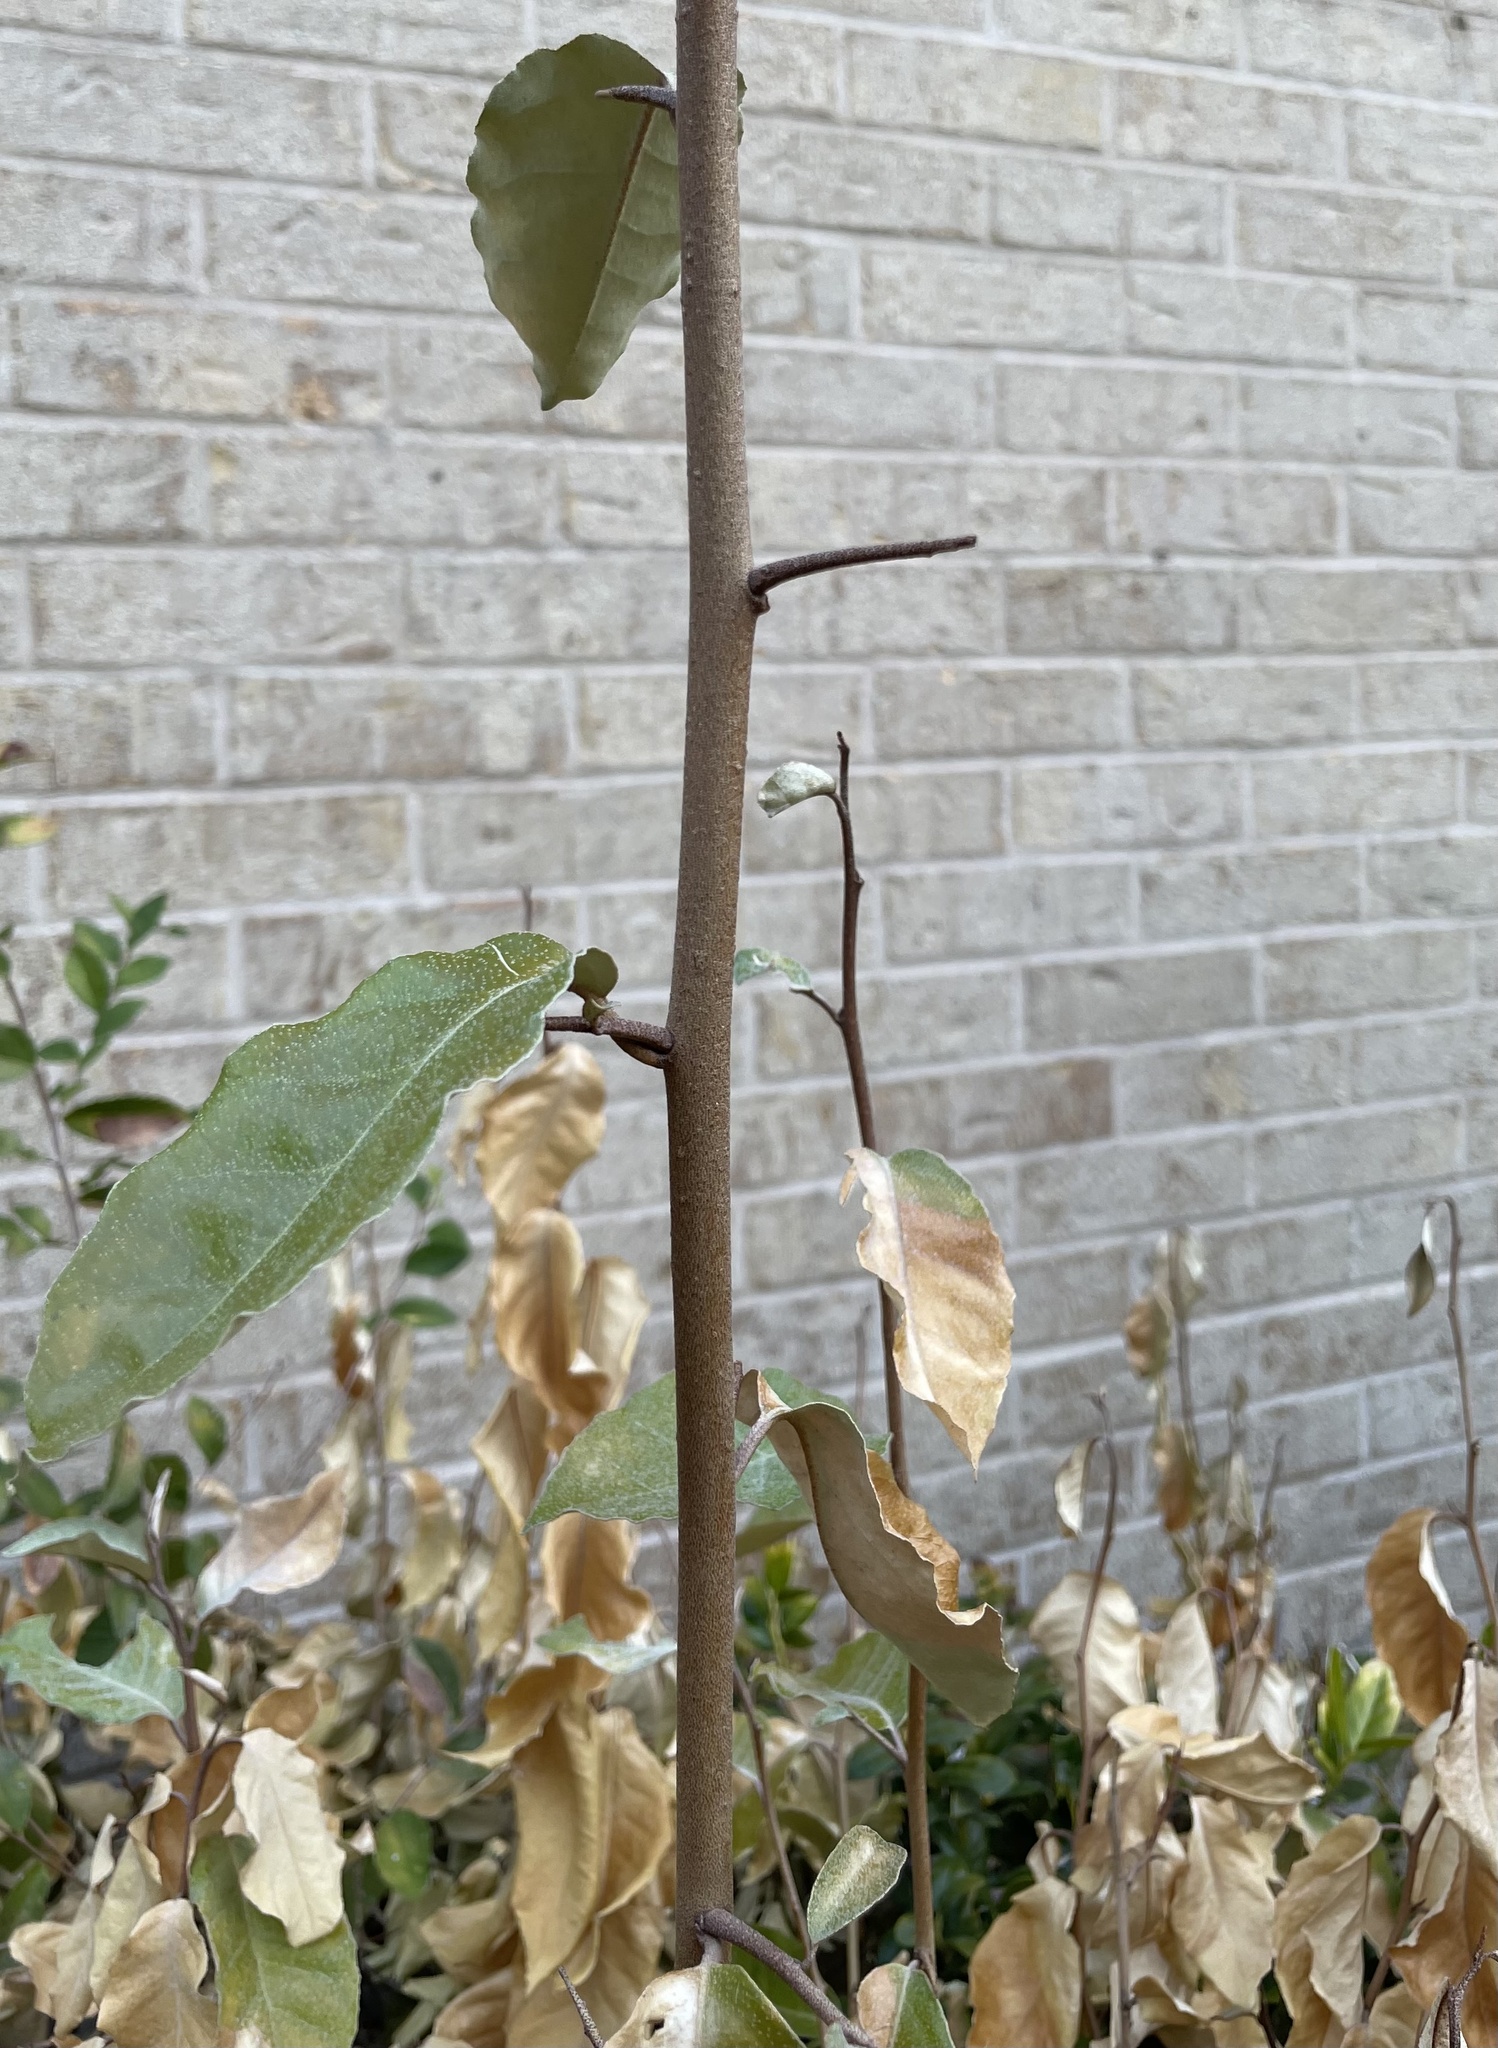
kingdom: Plantae
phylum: Tracheophyta
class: Magnoliopsida
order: Rosales
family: Elaeagnaceae
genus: Elaeagnus
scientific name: Elaeagnus pungens
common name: Spiny oleaster
